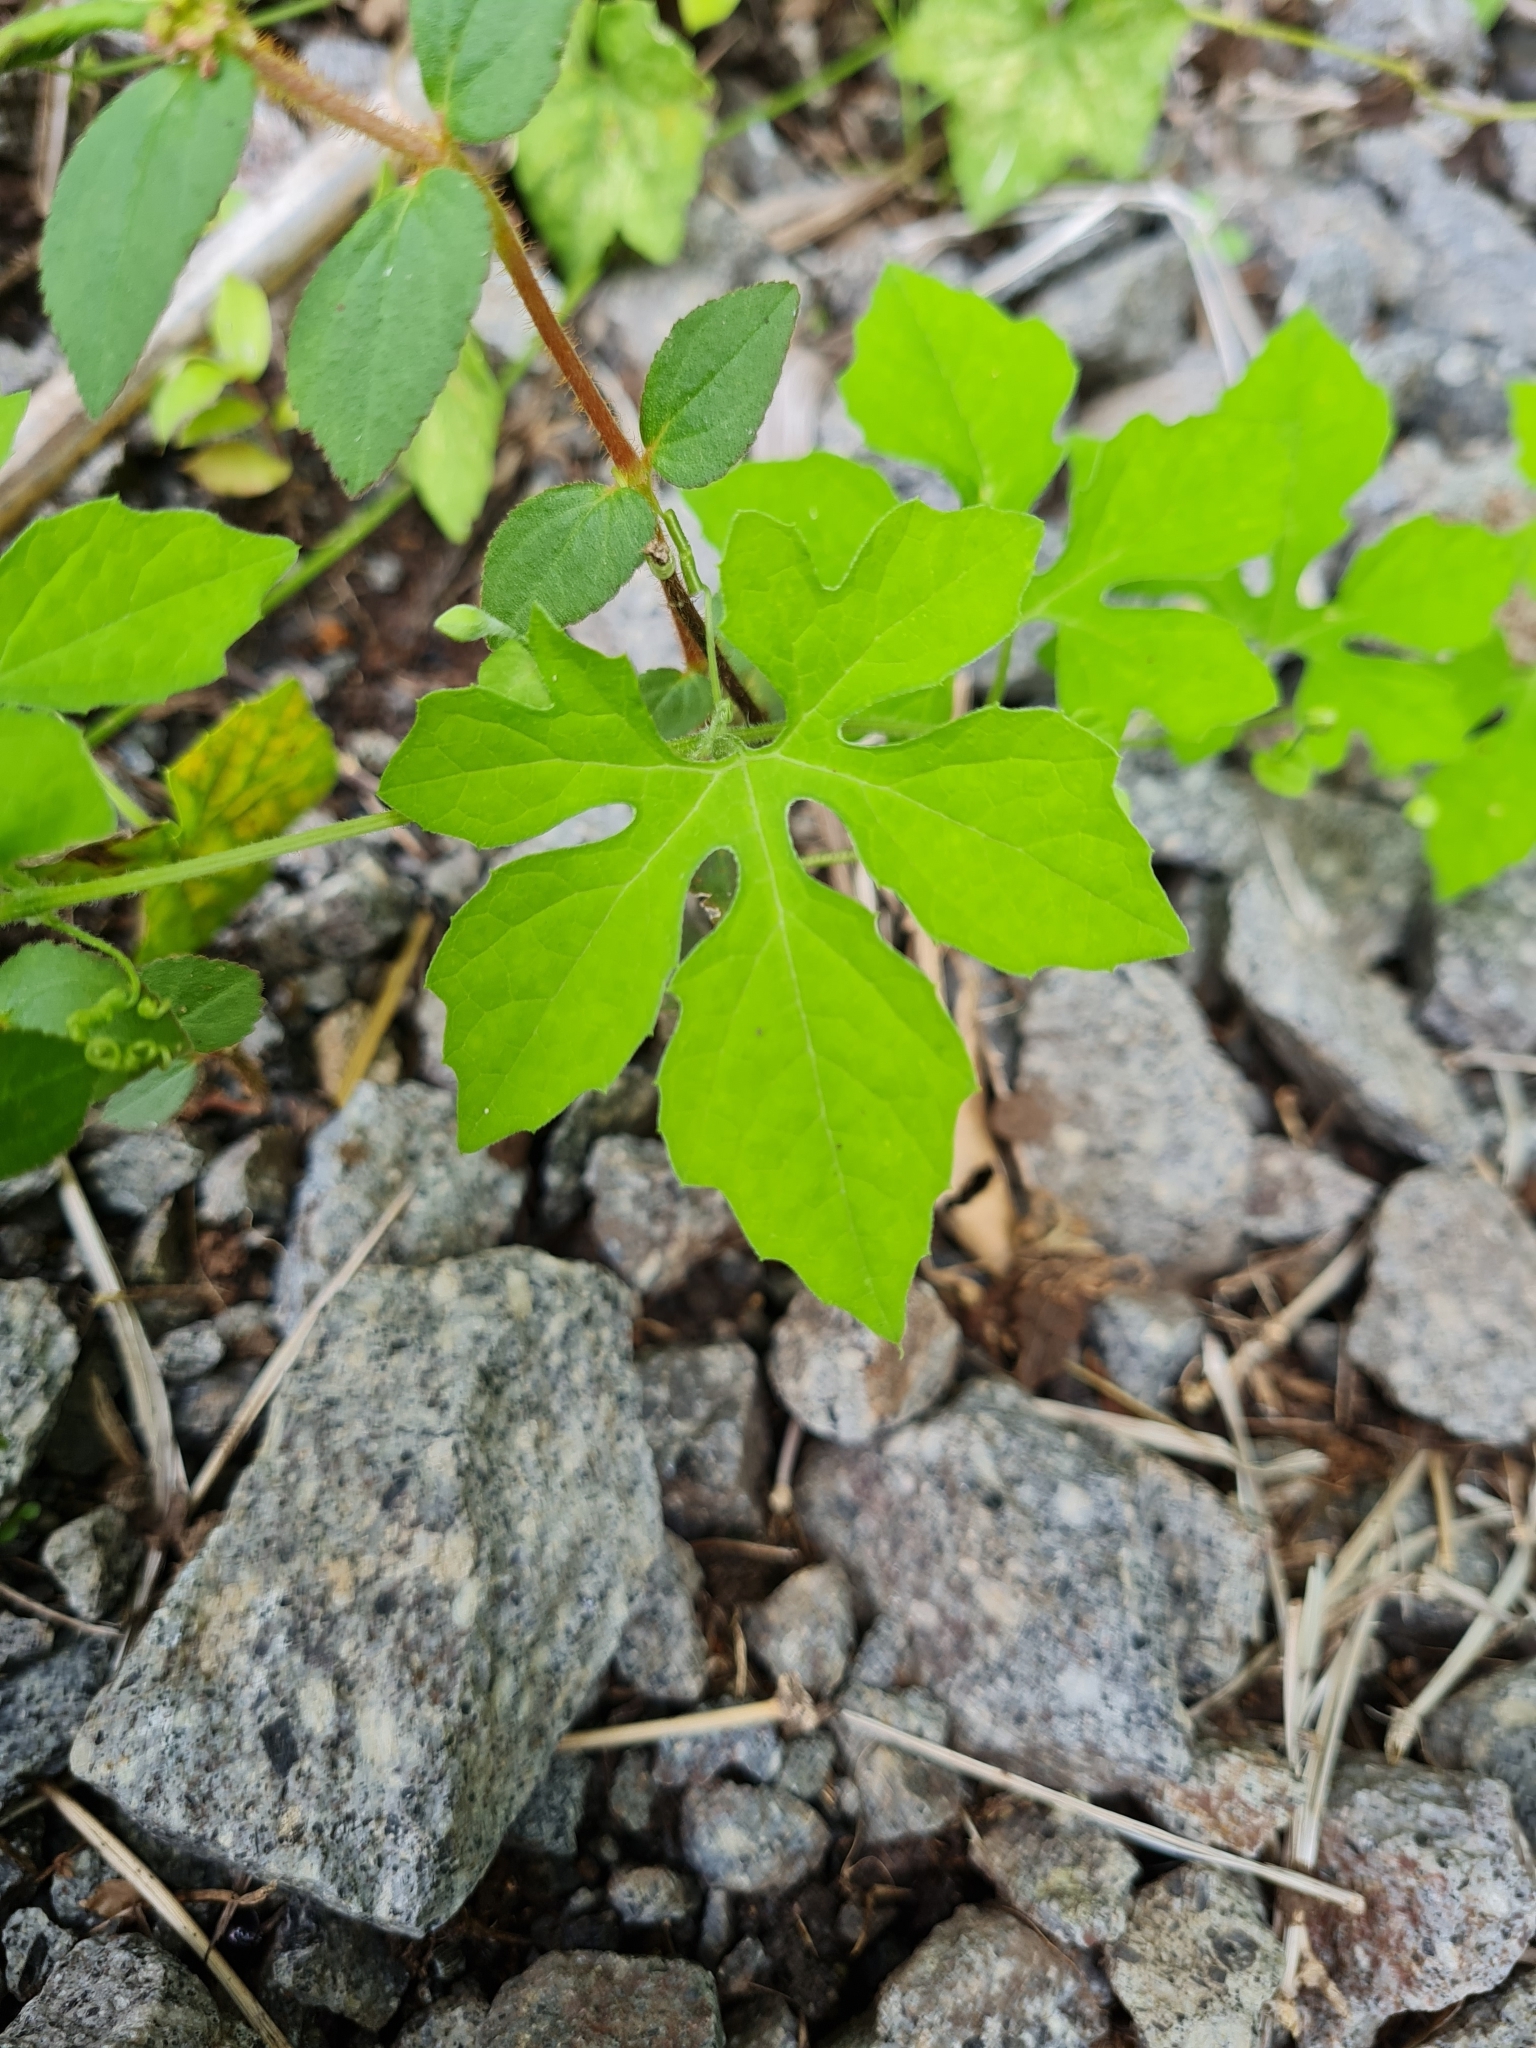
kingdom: Plantae
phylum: Tracheophyta
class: Magnoliopsida
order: Cucurbitales
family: Cucurbitaceae
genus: Momordica
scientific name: Momordica charantia
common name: Balsampear
